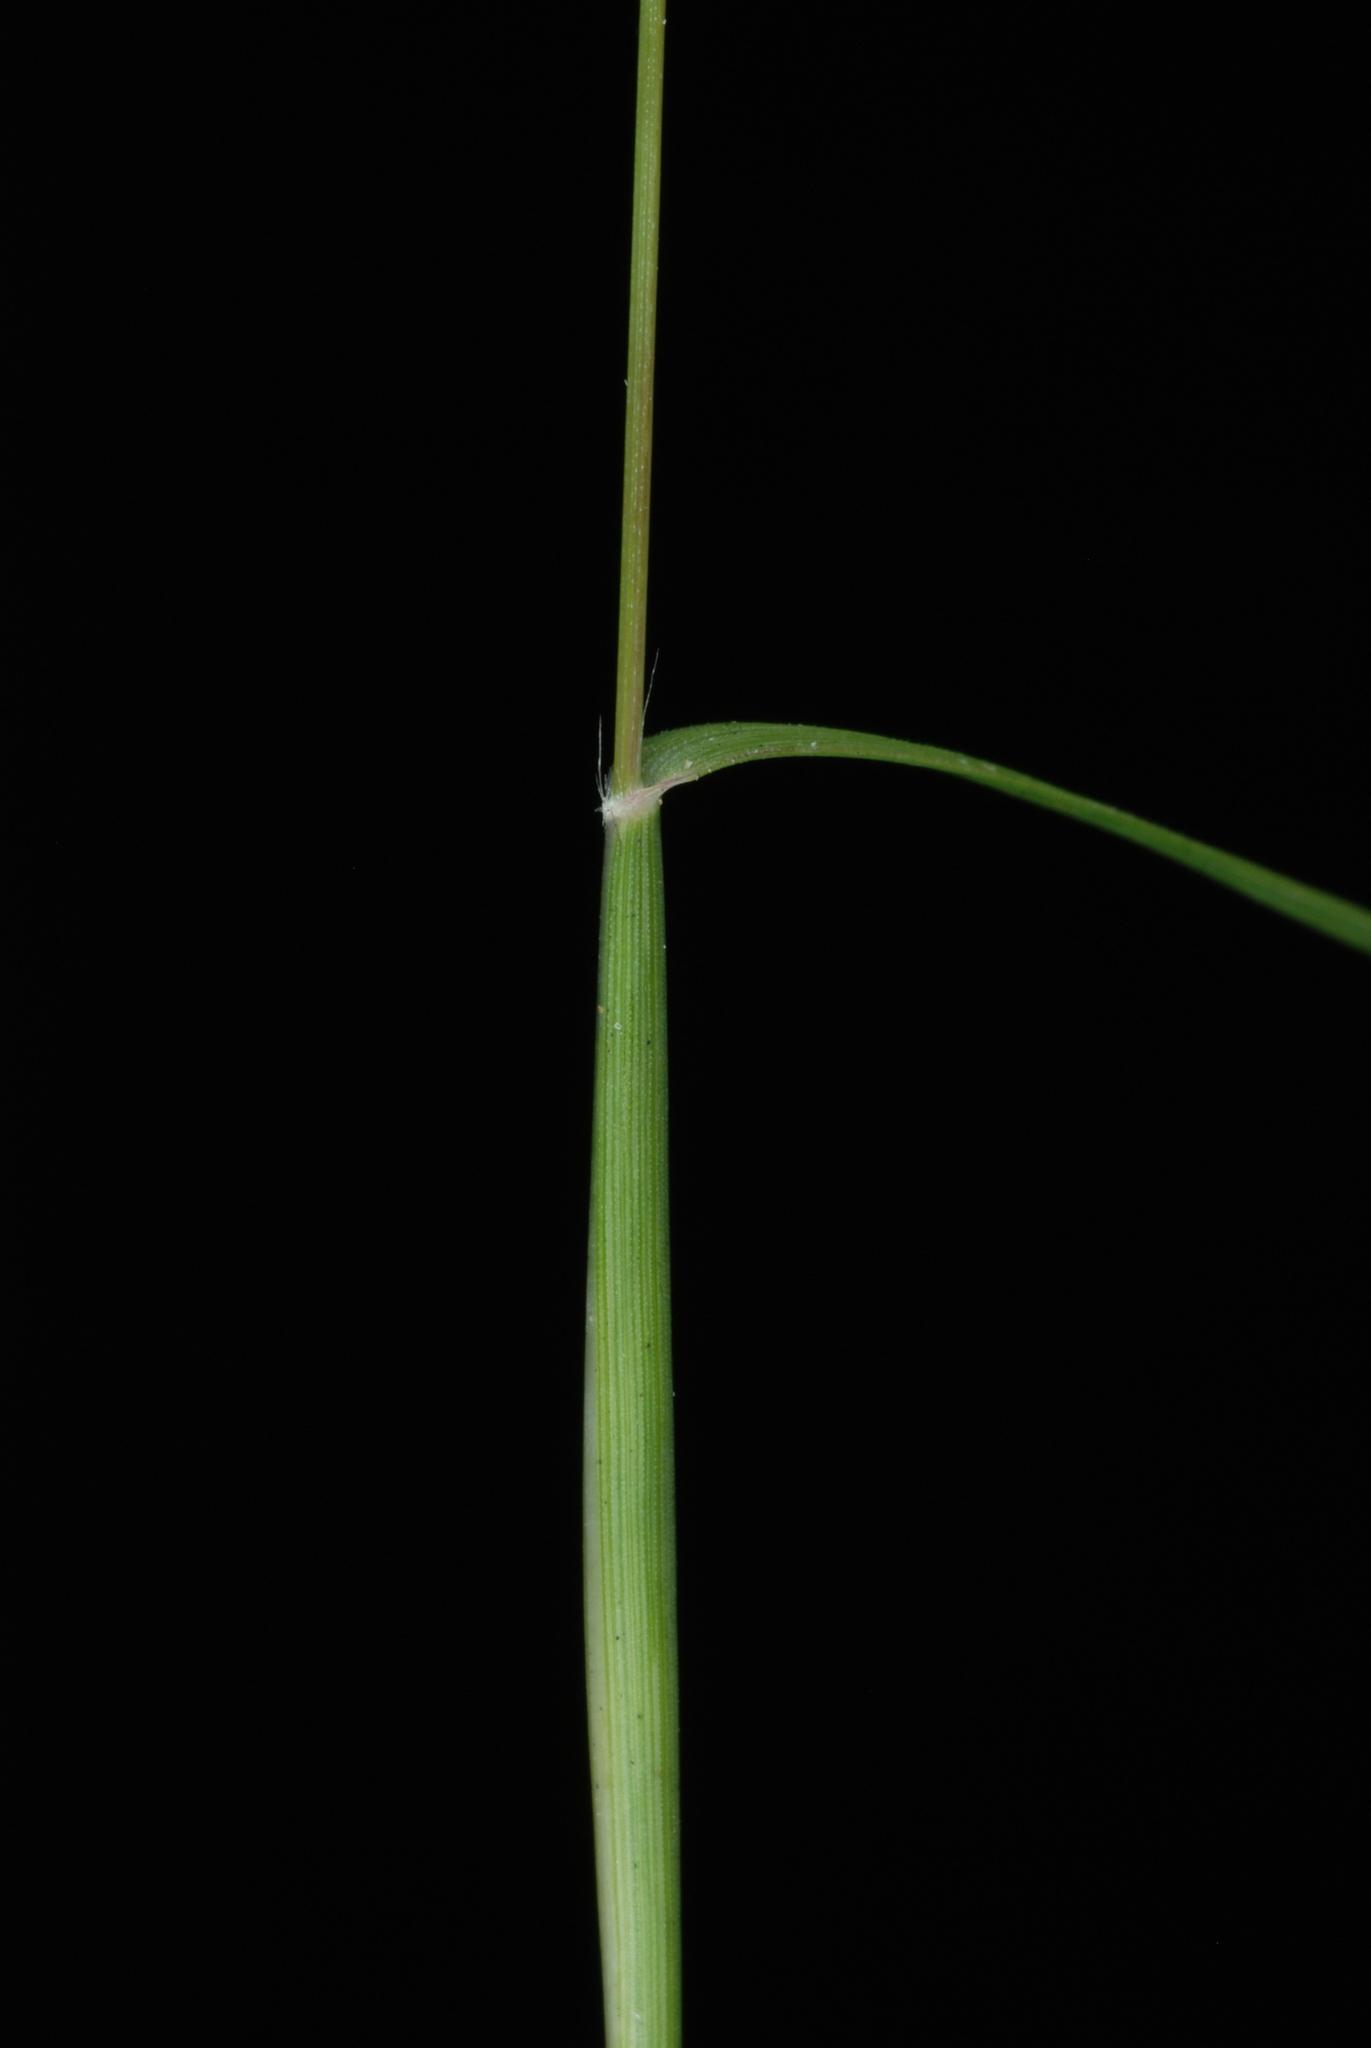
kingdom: Plantae
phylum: Tracheophyta
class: Liliopsida
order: Poales
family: Poaceae
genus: Sporobolus
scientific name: Sporobolus vaginiflorus
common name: Poverty dropseed
